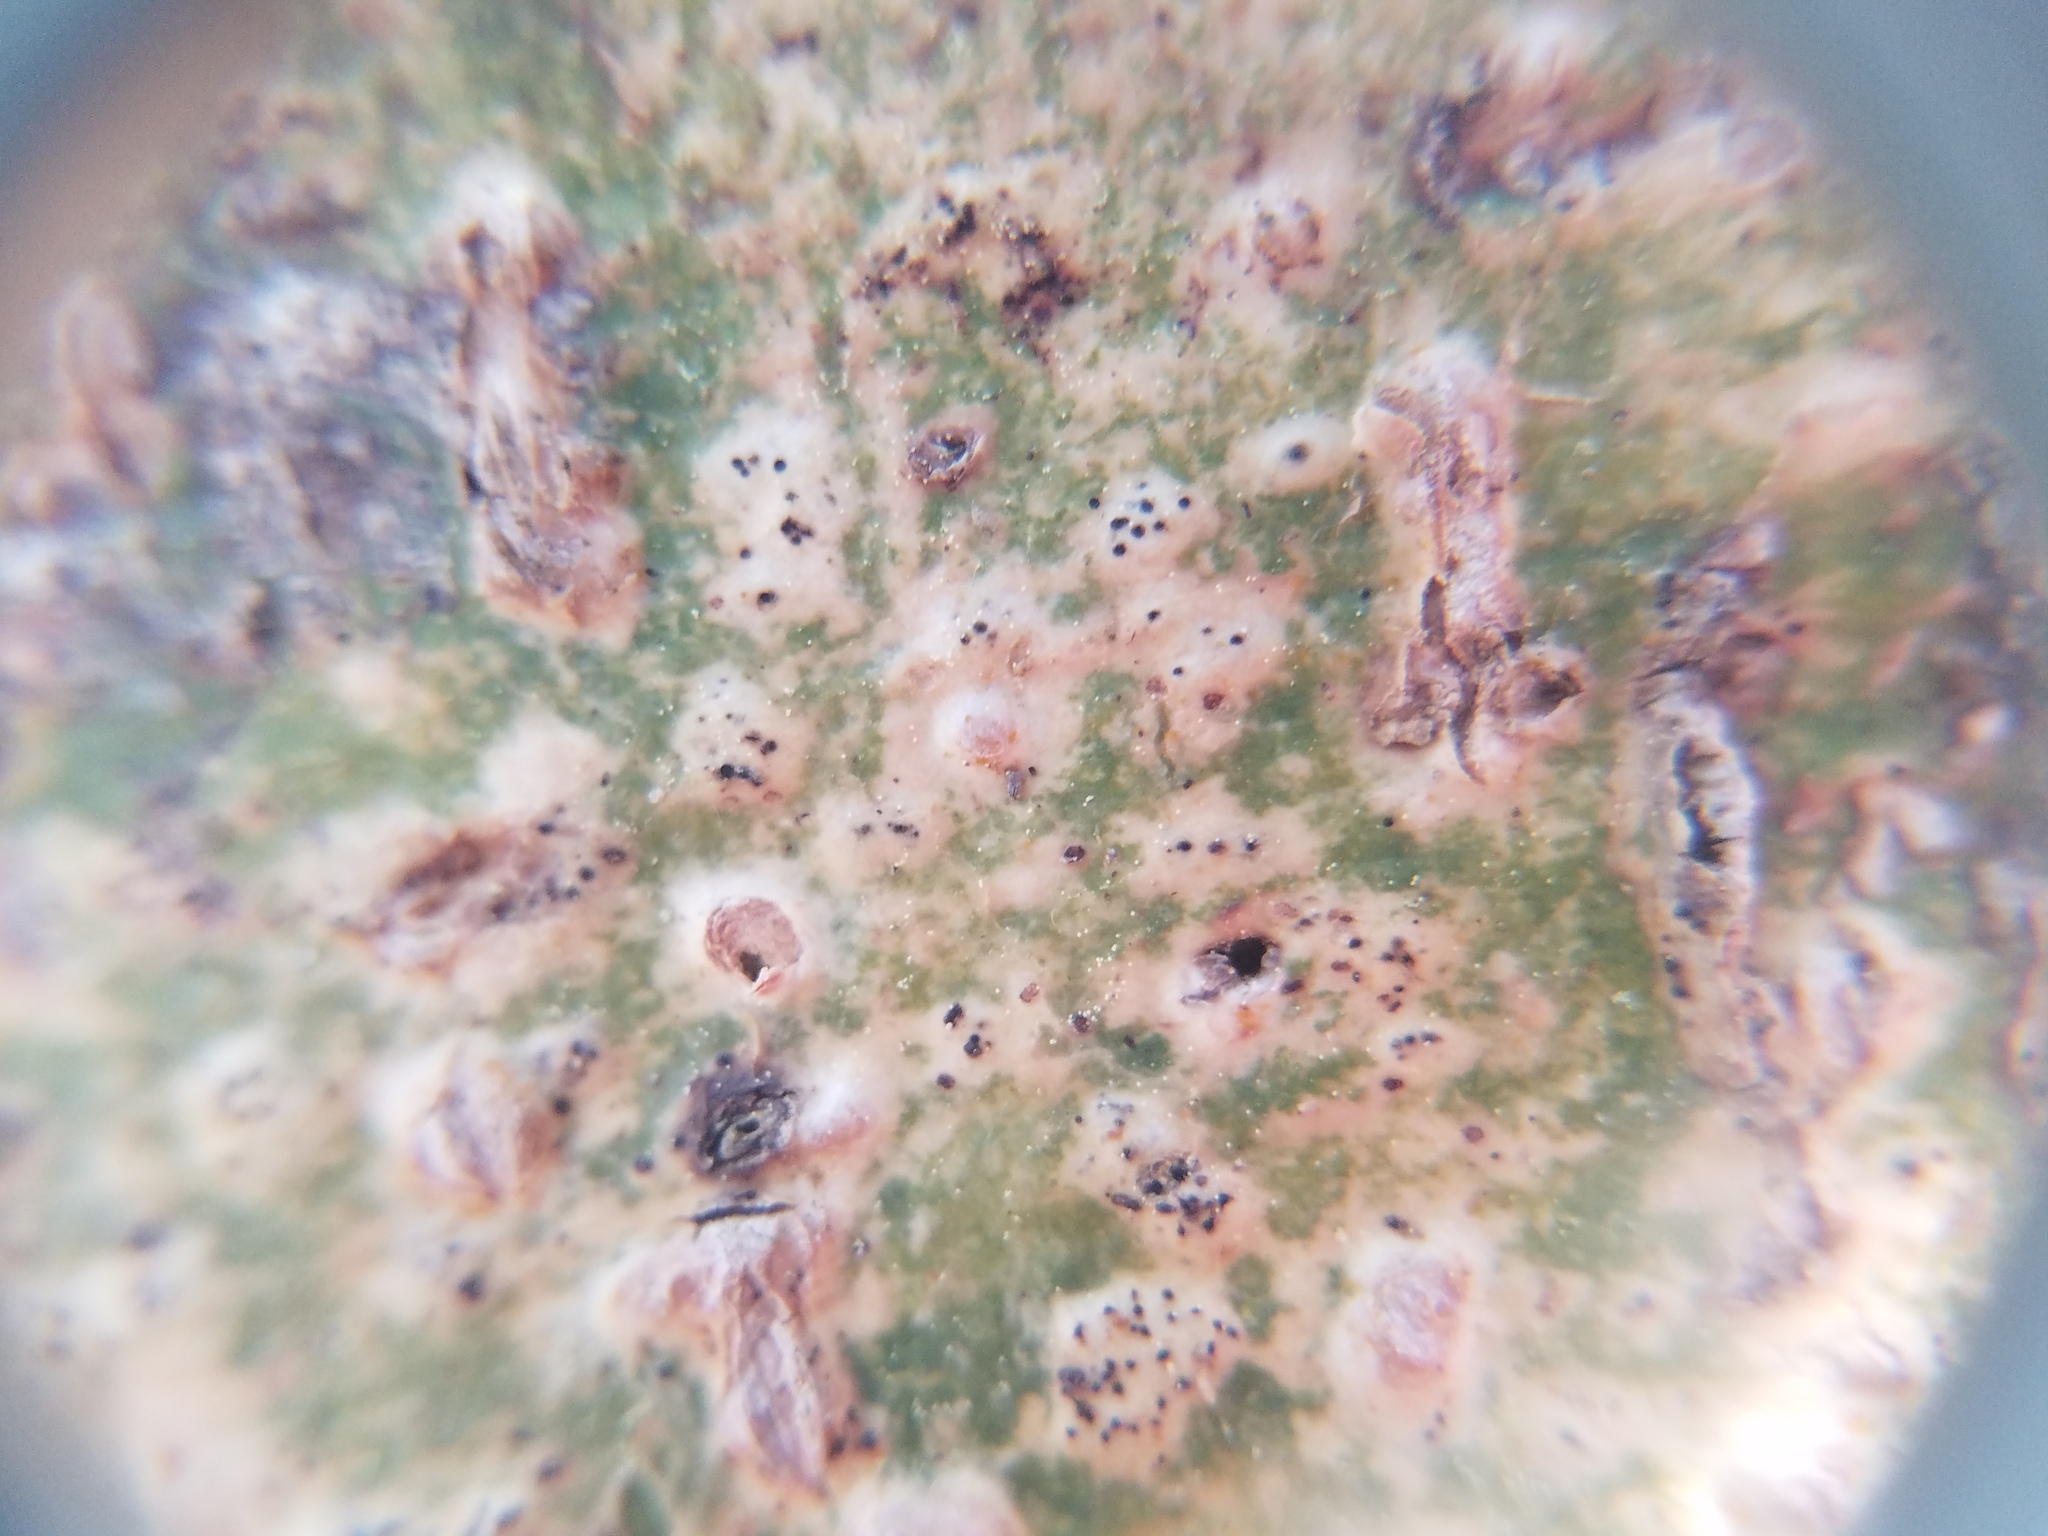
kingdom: Fungi
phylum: Ascomycota
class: Dothideomycetes
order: Trypetheliales
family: Trypetheliaceae
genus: Viridothelium
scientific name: Viridothelium virens
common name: Speckled blister lichen
